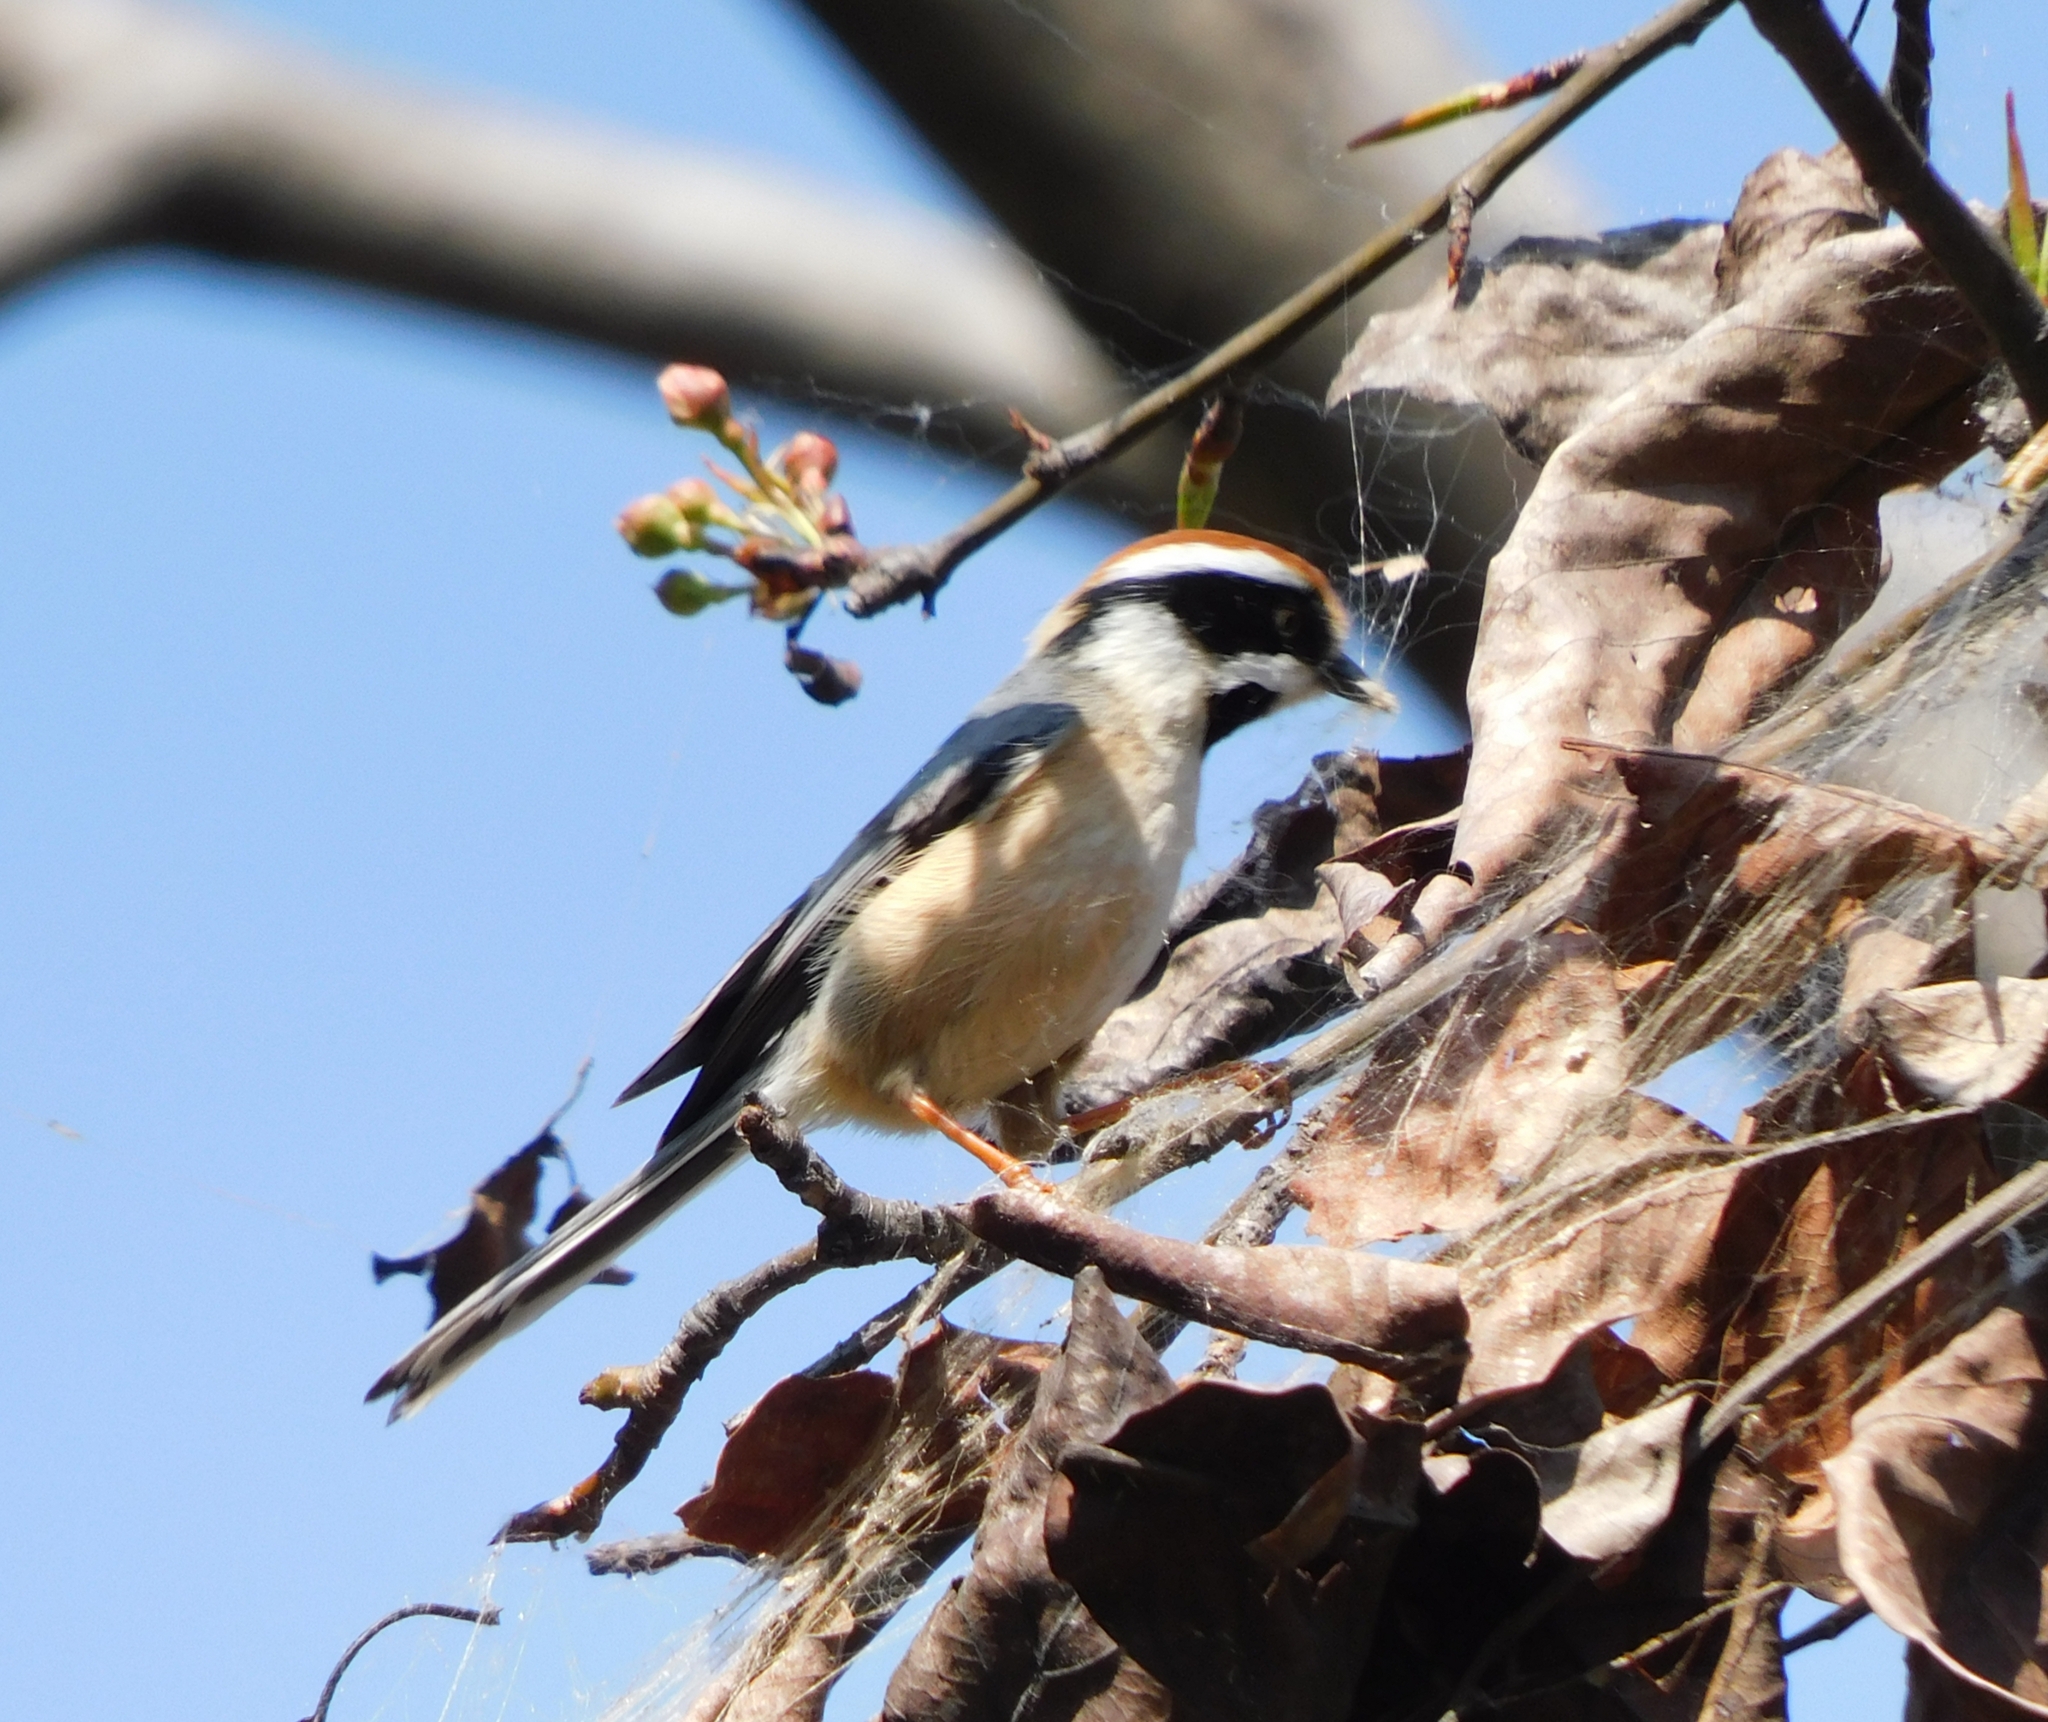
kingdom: Animalia
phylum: Chordata
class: Aves
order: Passeriformes
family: Aegithalidae
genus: Aegithalos
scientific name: Aegithalos concinnus
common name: Black-throated bushtit
